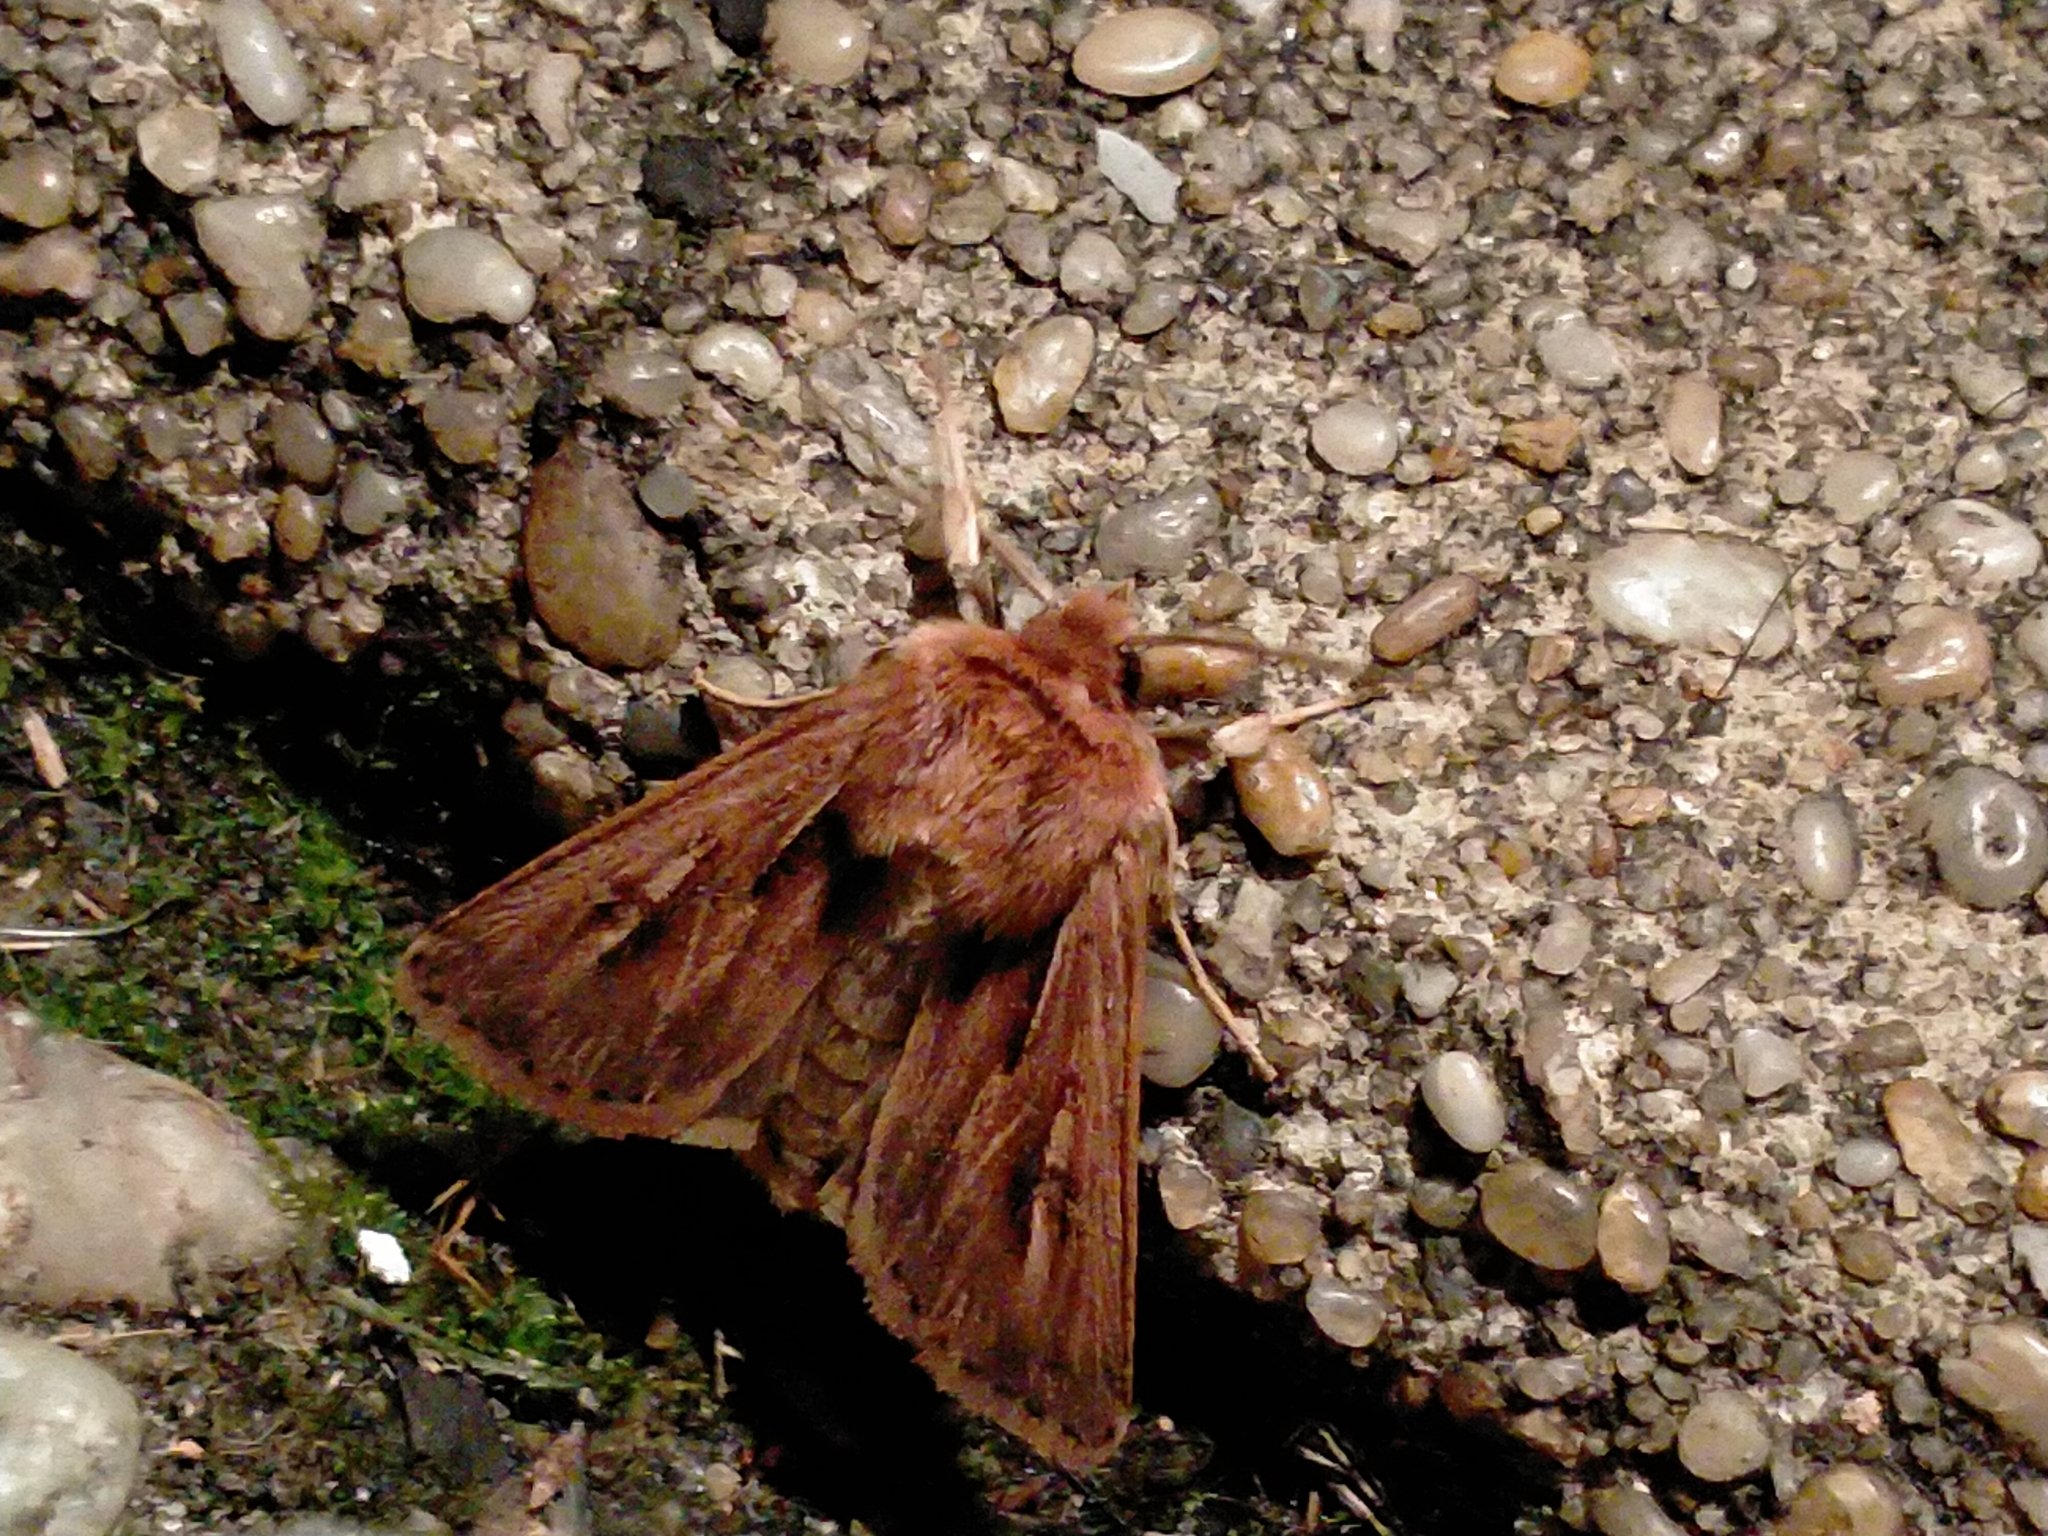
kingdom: Animalia
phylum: Arthropoda
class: Insecta
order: Lepidoptera
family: Noctuidae
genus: Ichneutica
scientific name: Ichneutica propria
